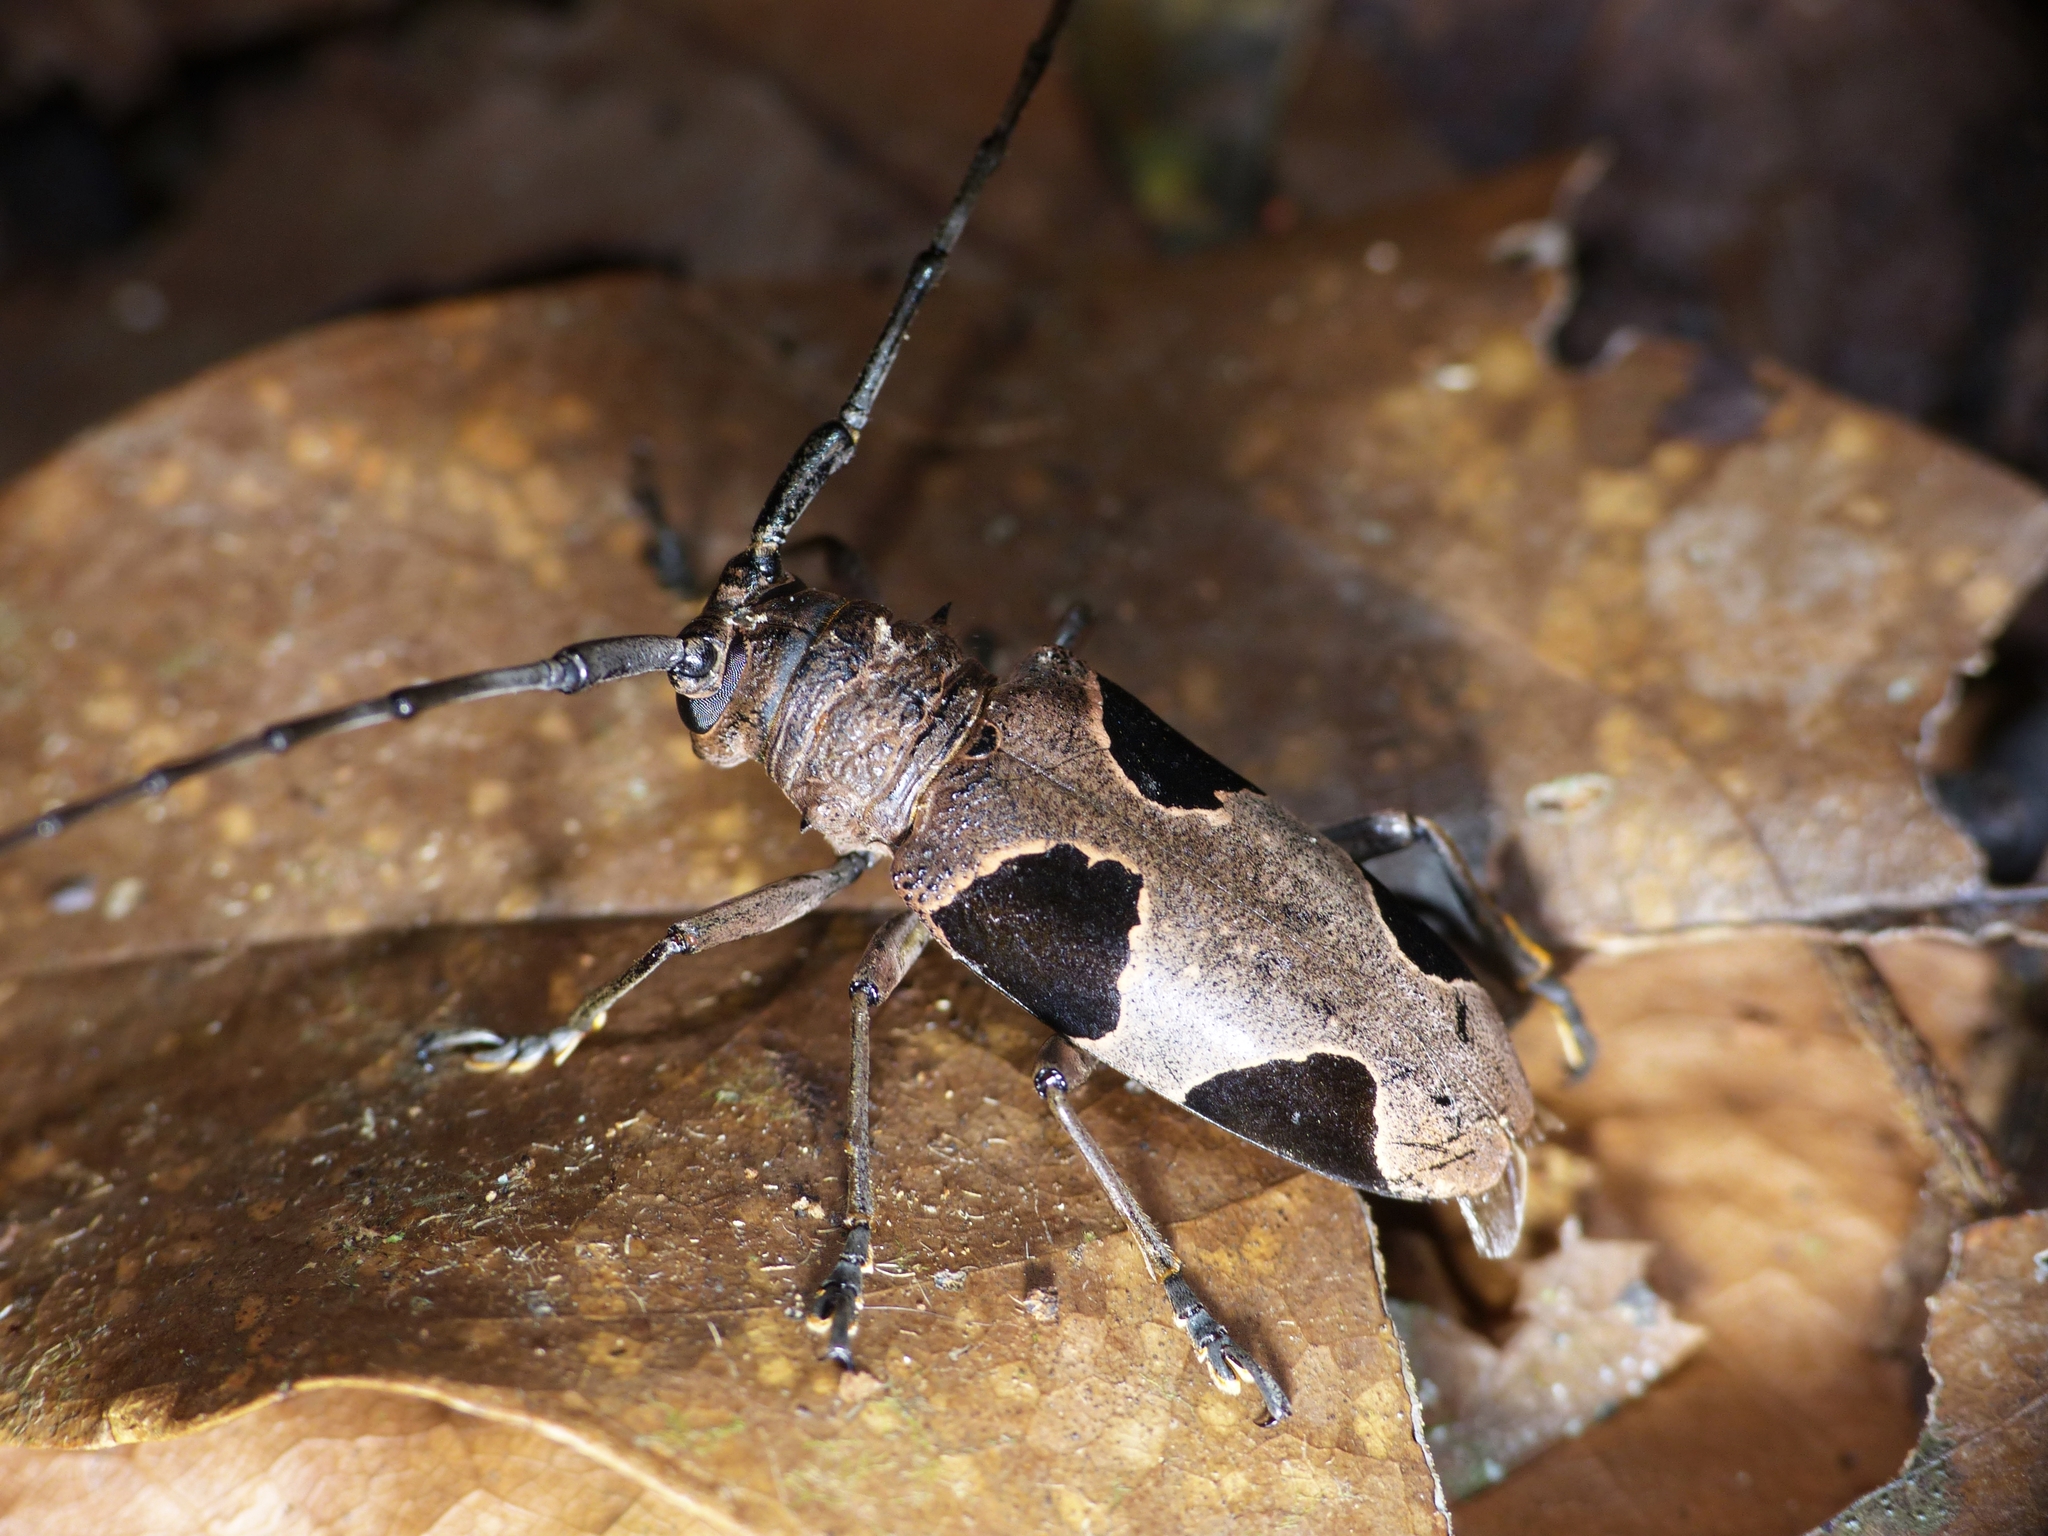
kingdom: Animalia
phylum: Arthropoda
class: Insecta
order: Coleoptera
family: Cerambycidae
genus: Parepicedia
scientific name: Parepicedia fimbriata
